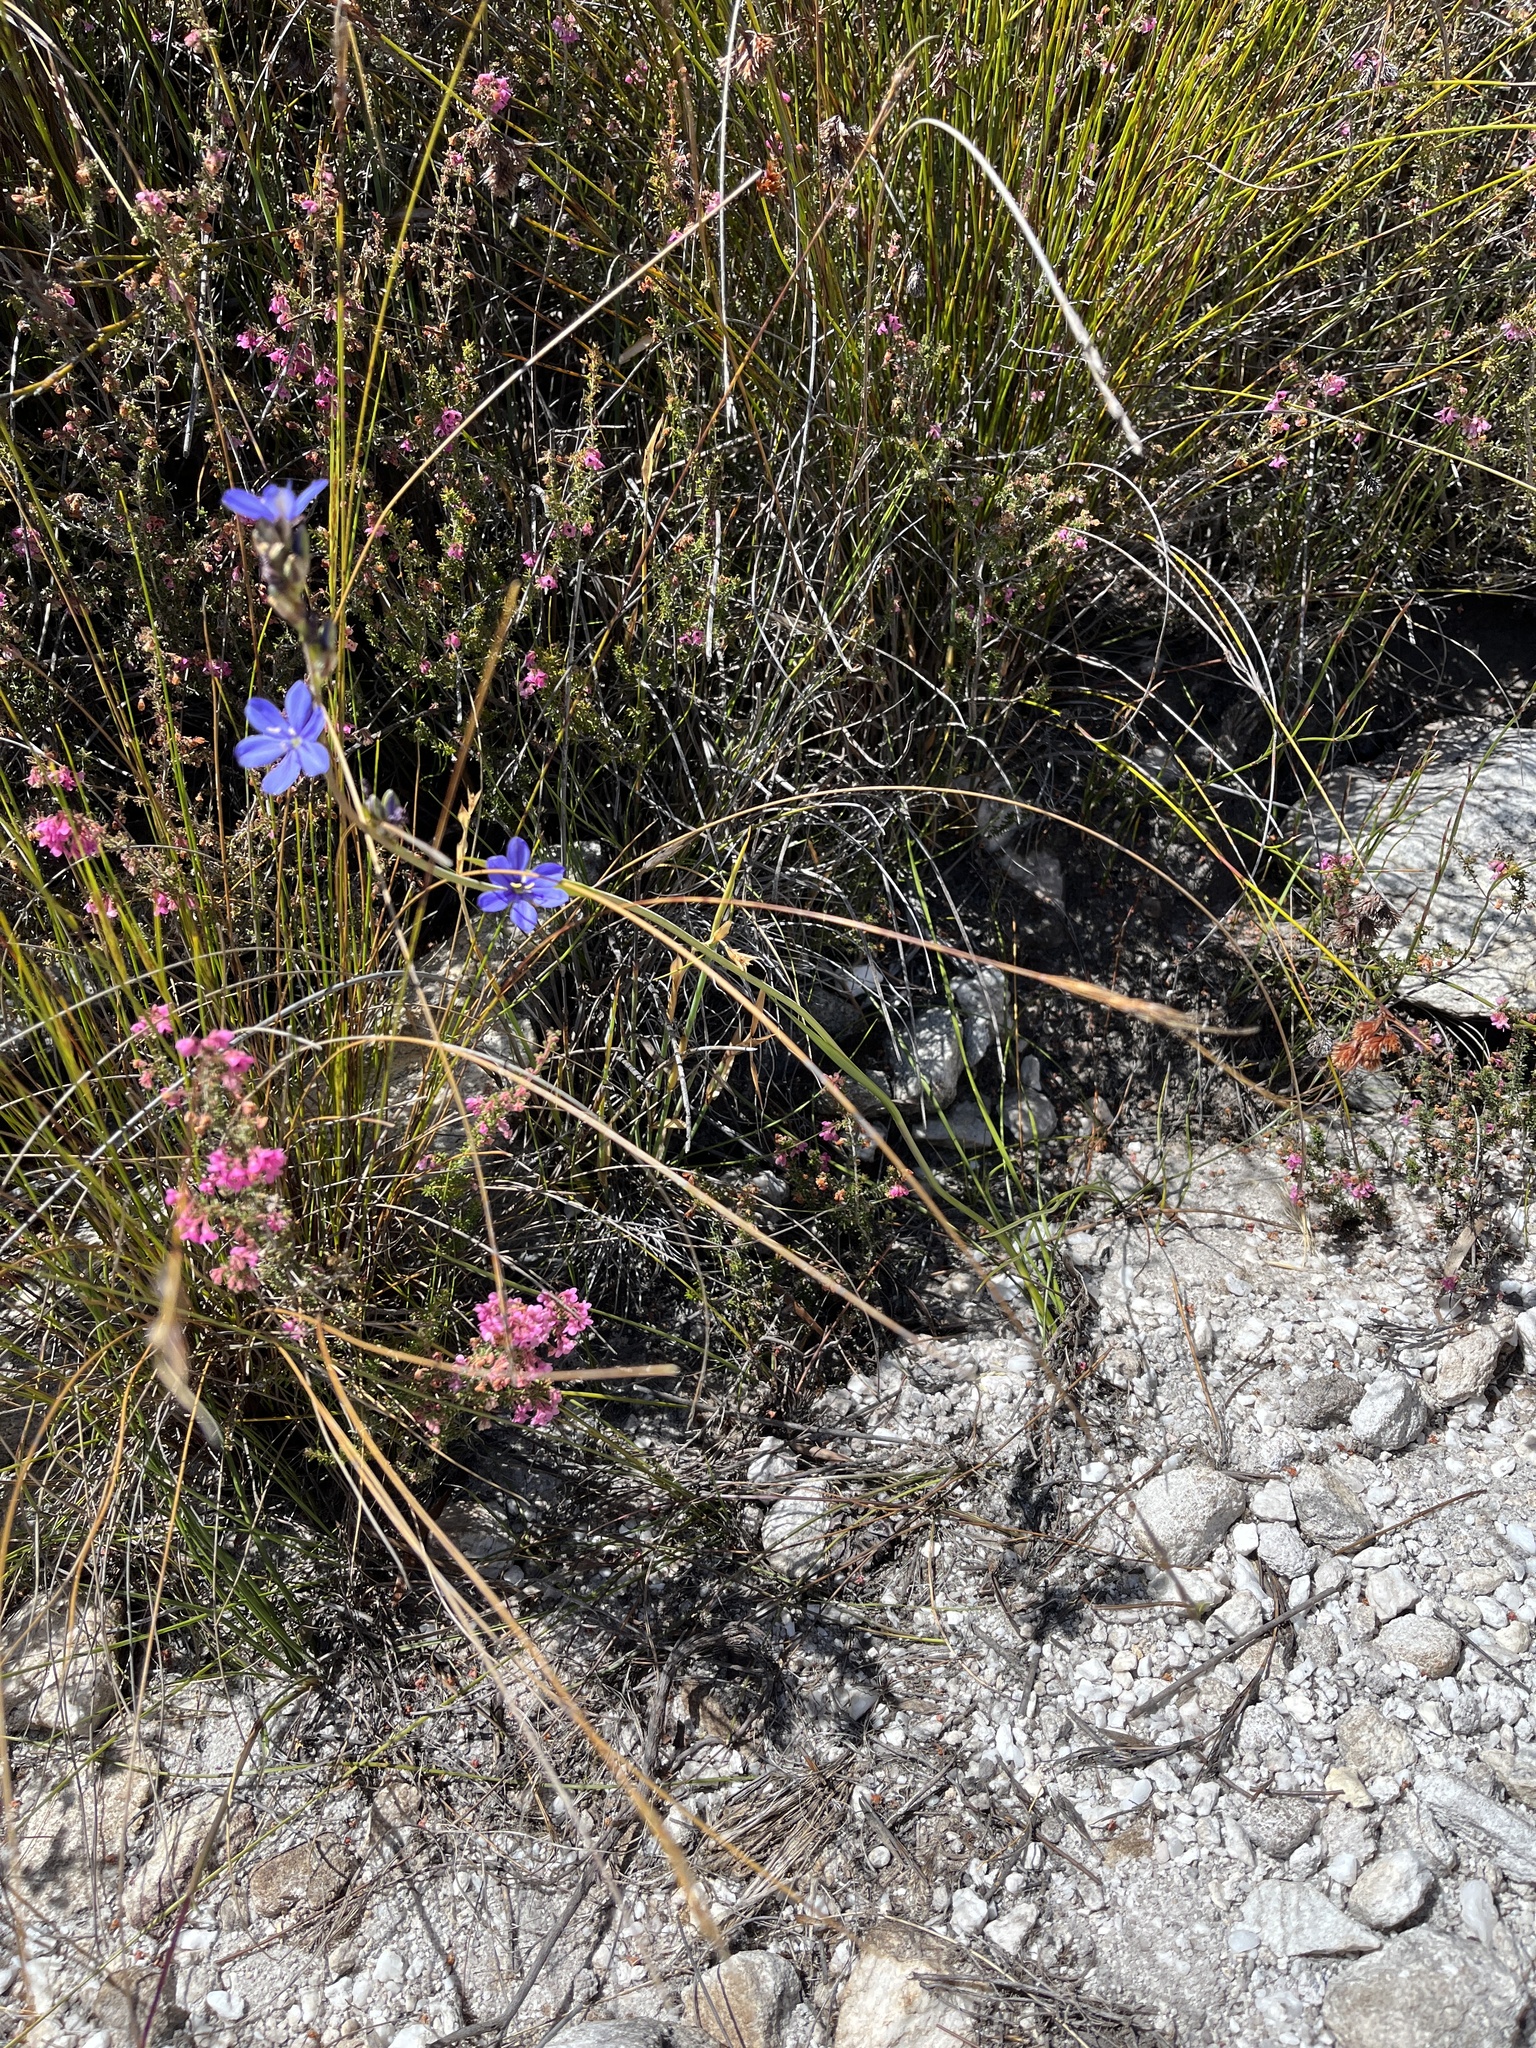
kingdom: Plantae
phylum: Tracheophyta
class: Liliopsida
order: Asparagales
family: Iridaceae
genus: Aristea
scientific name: Aristea racemosa
